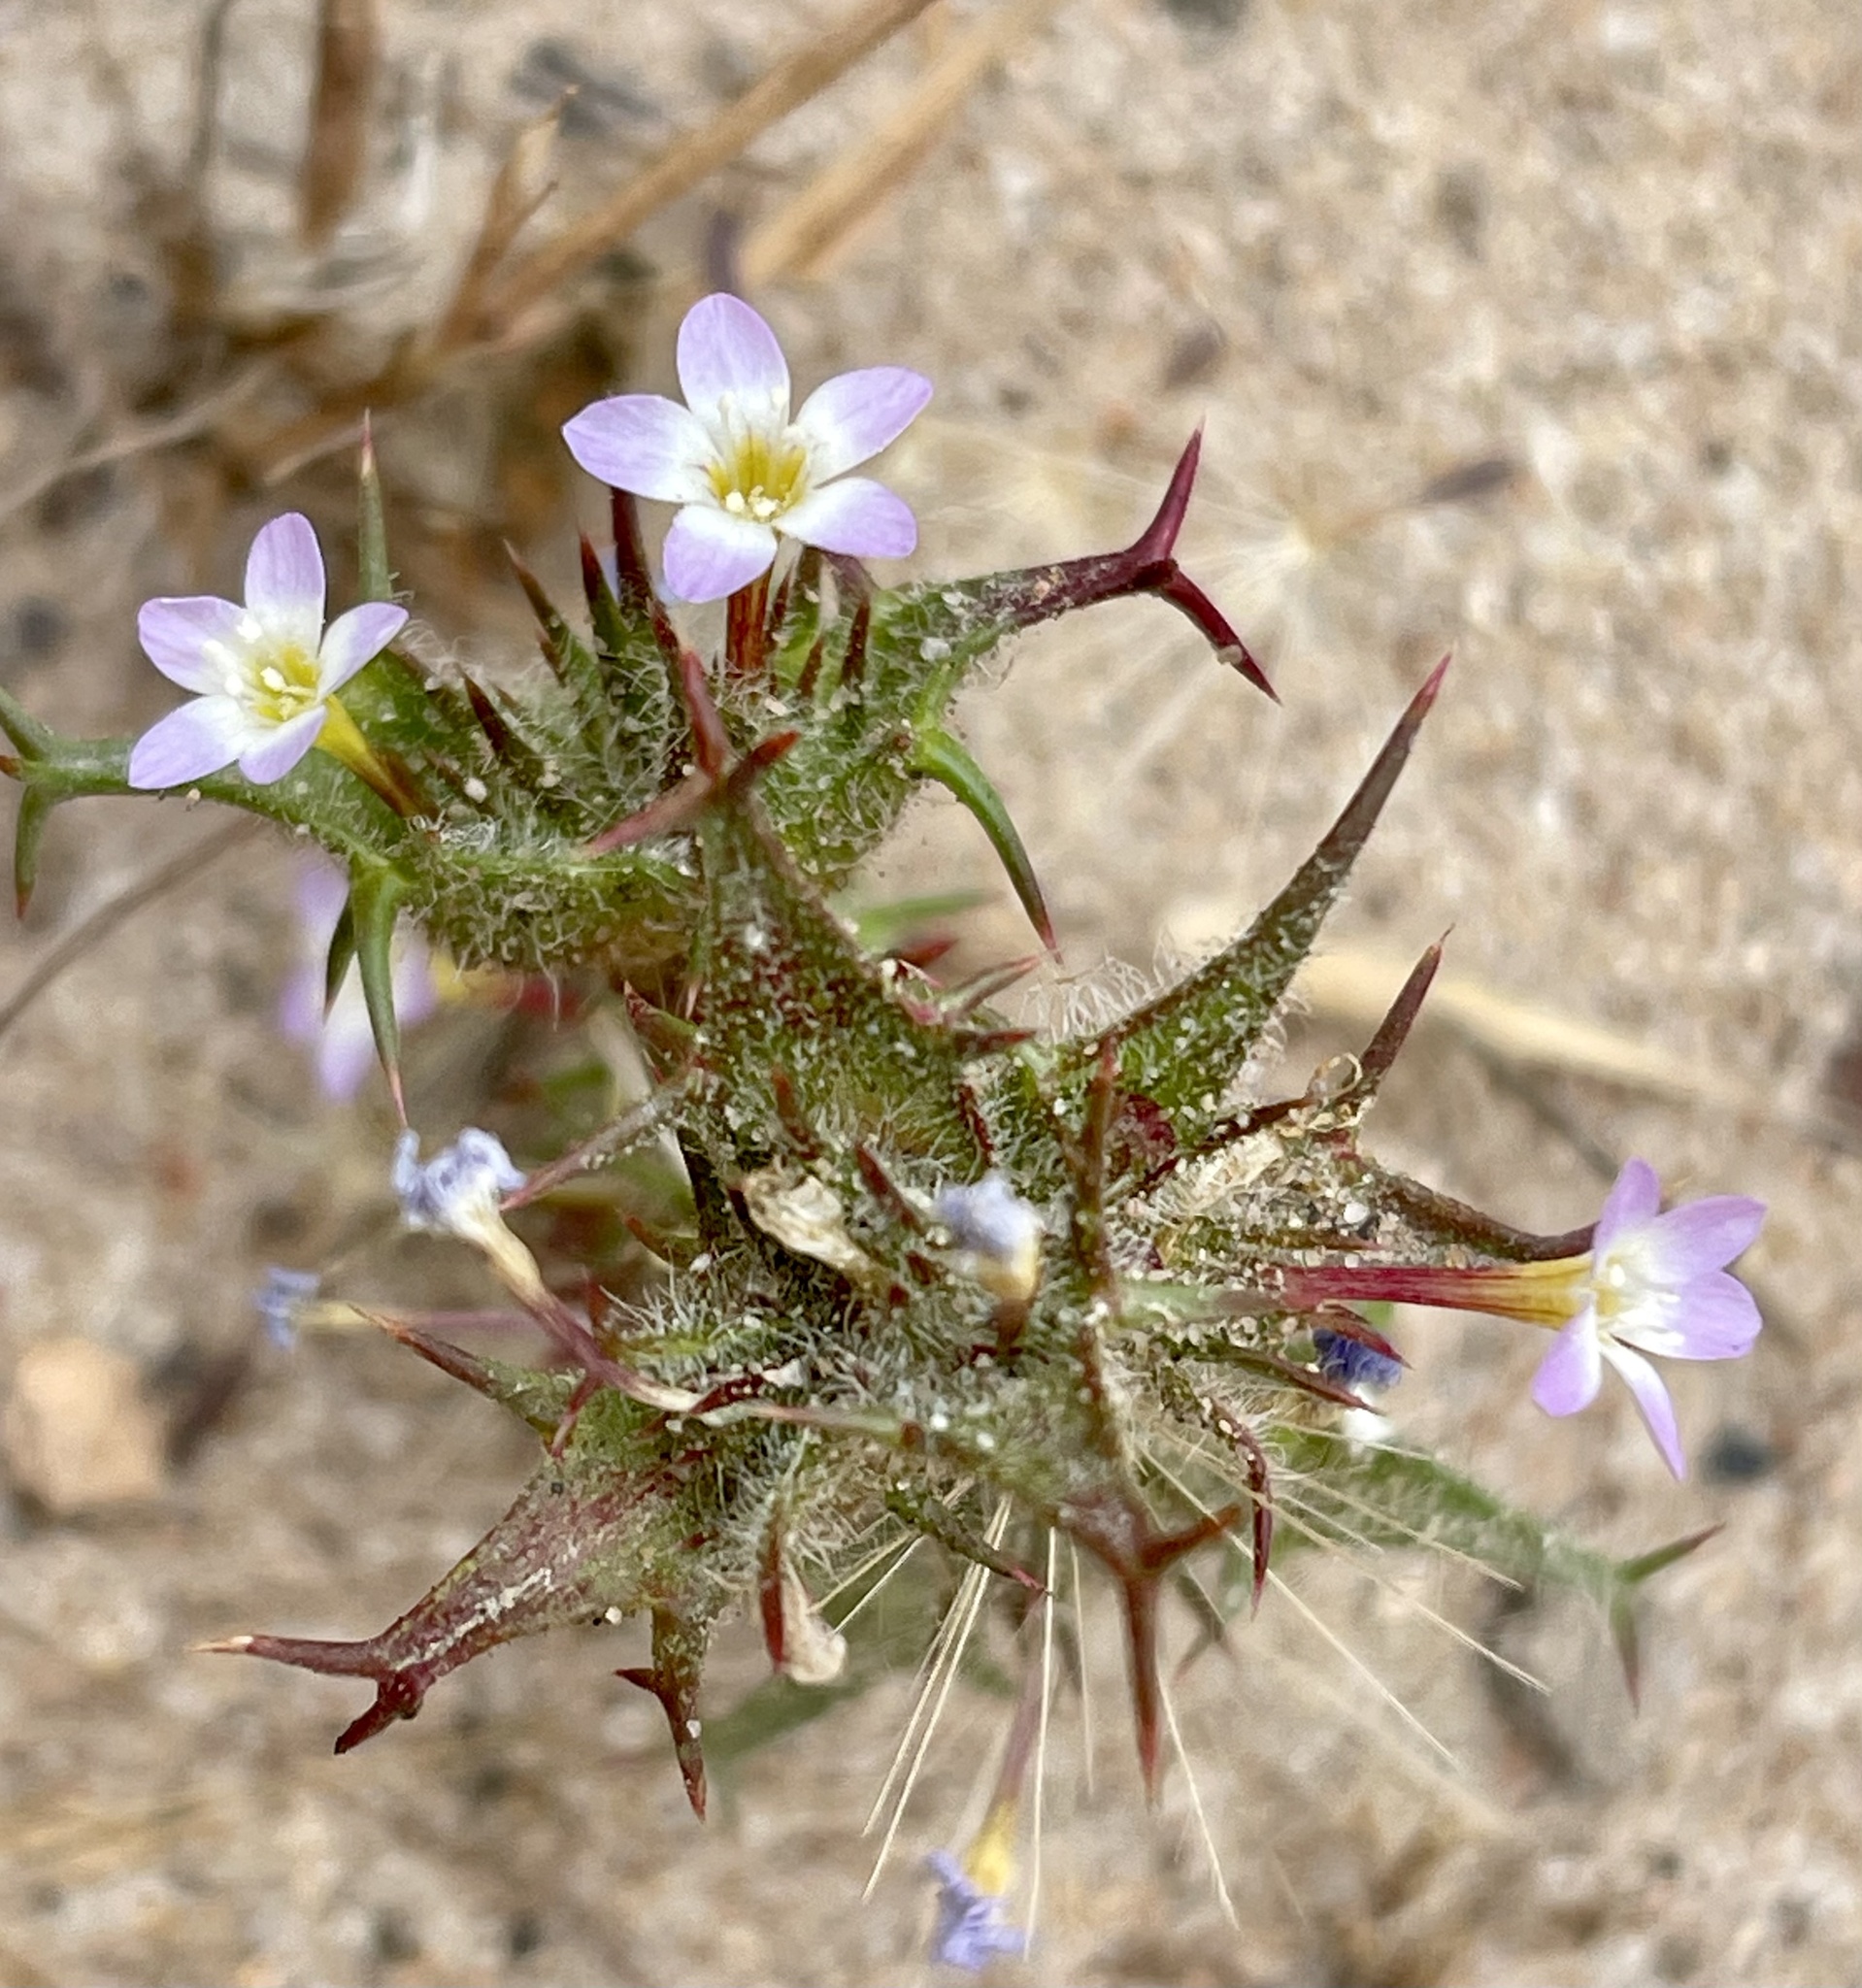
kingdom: Plantae
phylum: Tracheophyta
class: Magnoliopsida
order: Ericales
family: Polemoniaceae
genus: Navarretia
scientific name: Navarretia hamata
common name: Hooked navarretia
